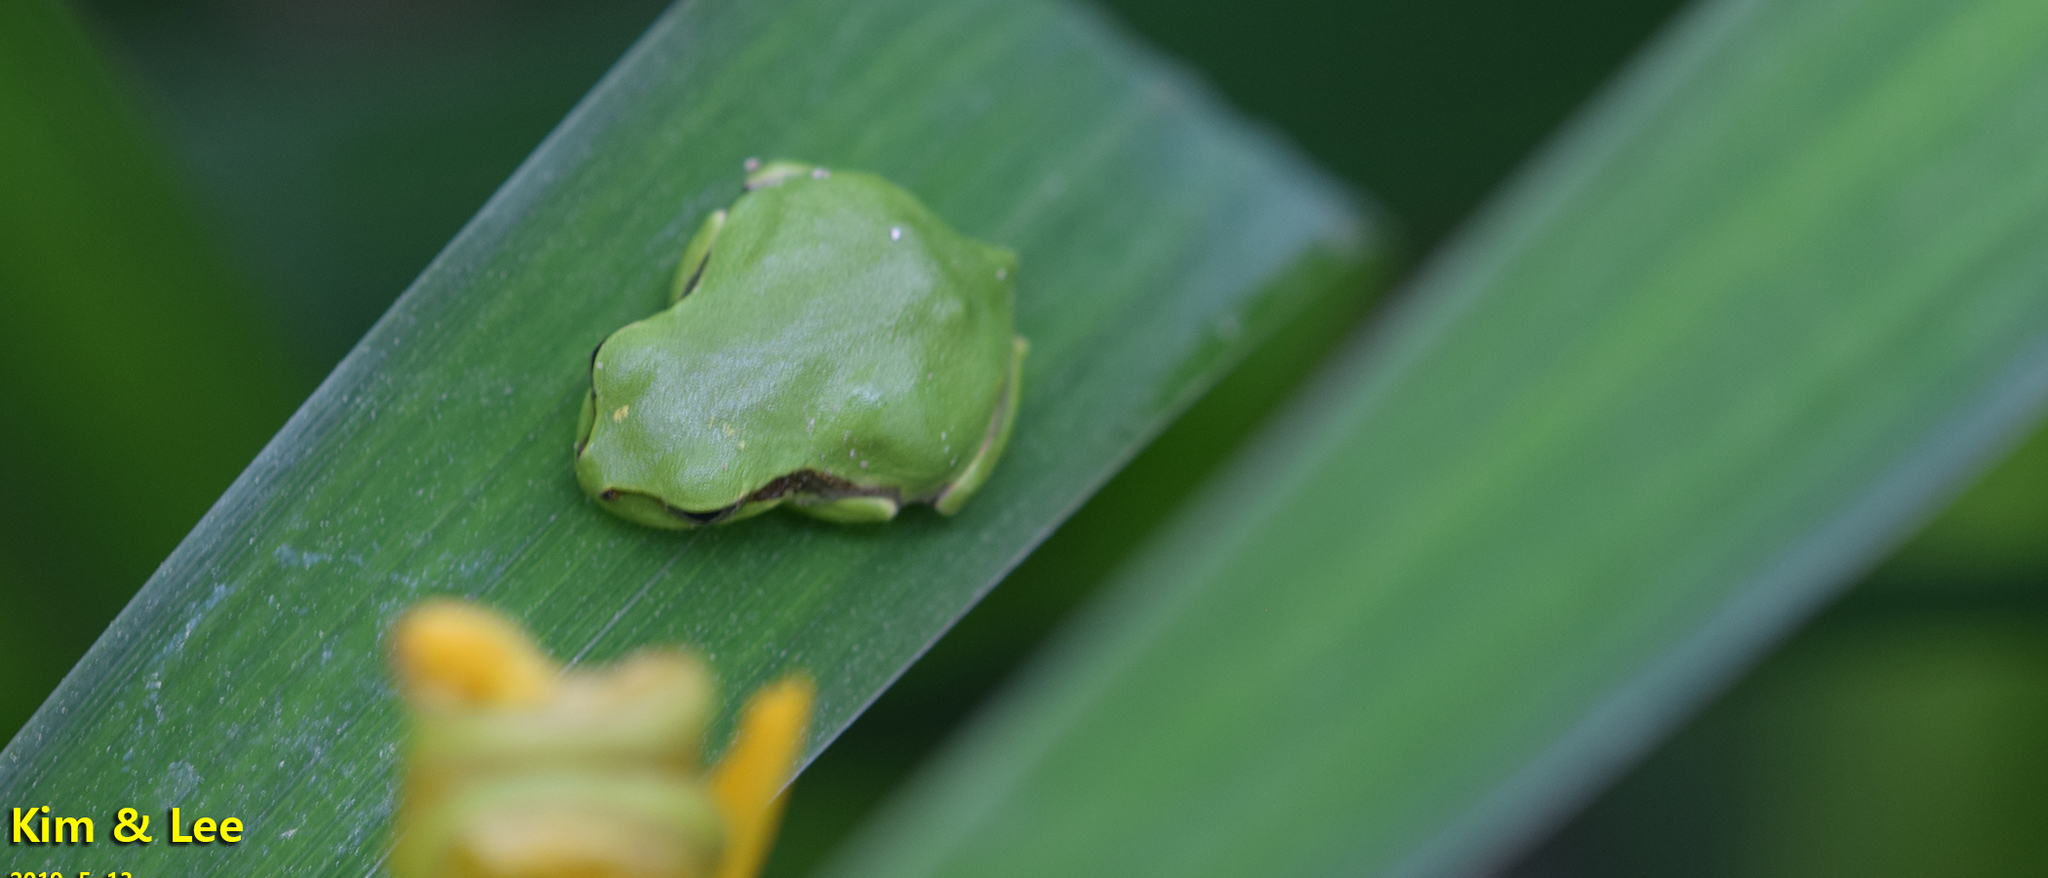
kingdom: Animalia
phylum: Chordata
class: Amphibia
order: Anura
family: Hylidae
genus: Dryophytes
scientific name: Dryophytes japonicus
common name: Japanese treefrog
